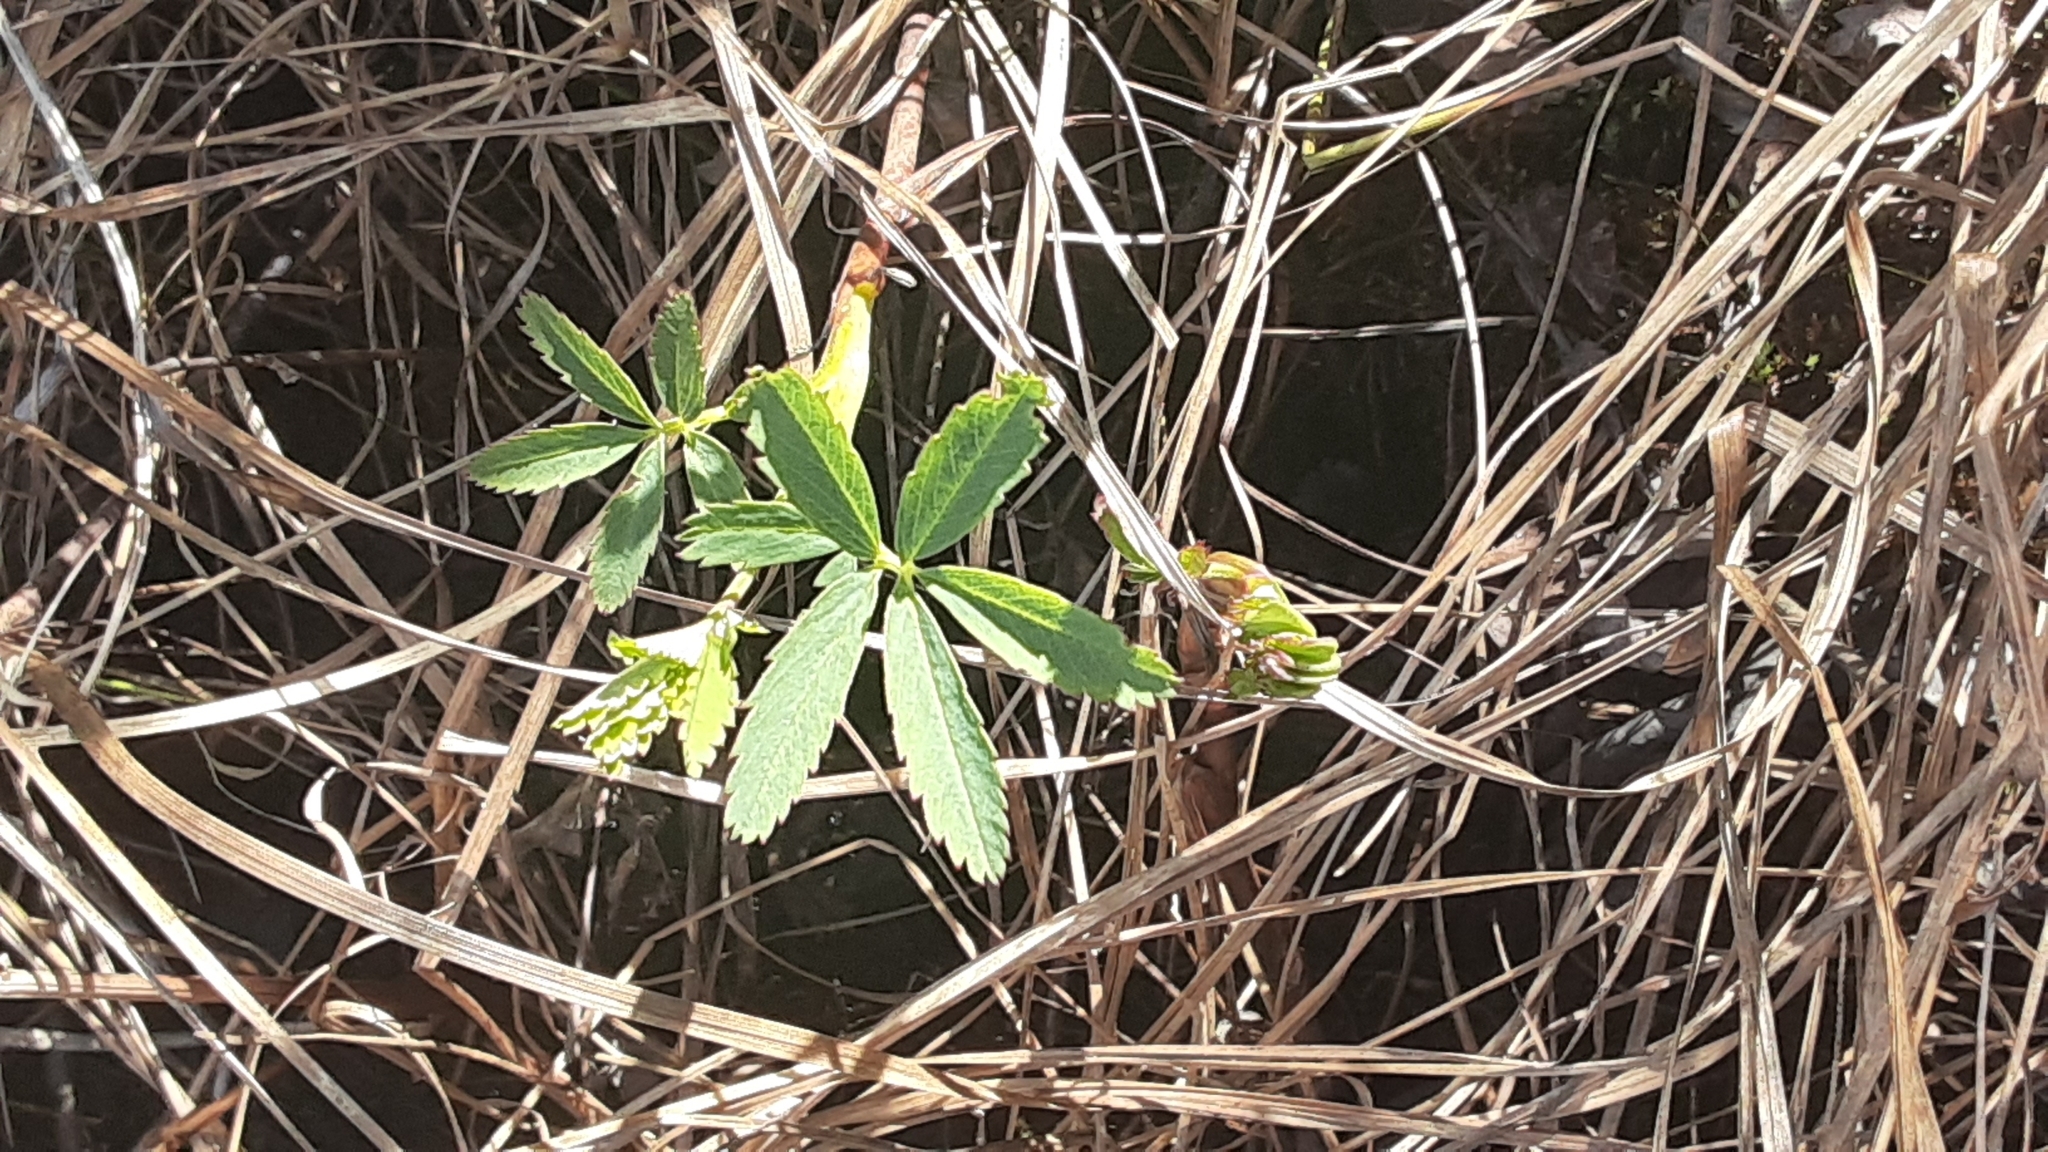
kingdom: Plantae
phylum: Tracheophyta
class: Magnoliopsida
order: Rosales
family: Rosaceae
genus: Comarum
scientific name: Comarum palustre
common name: Marsh cinquefoil
